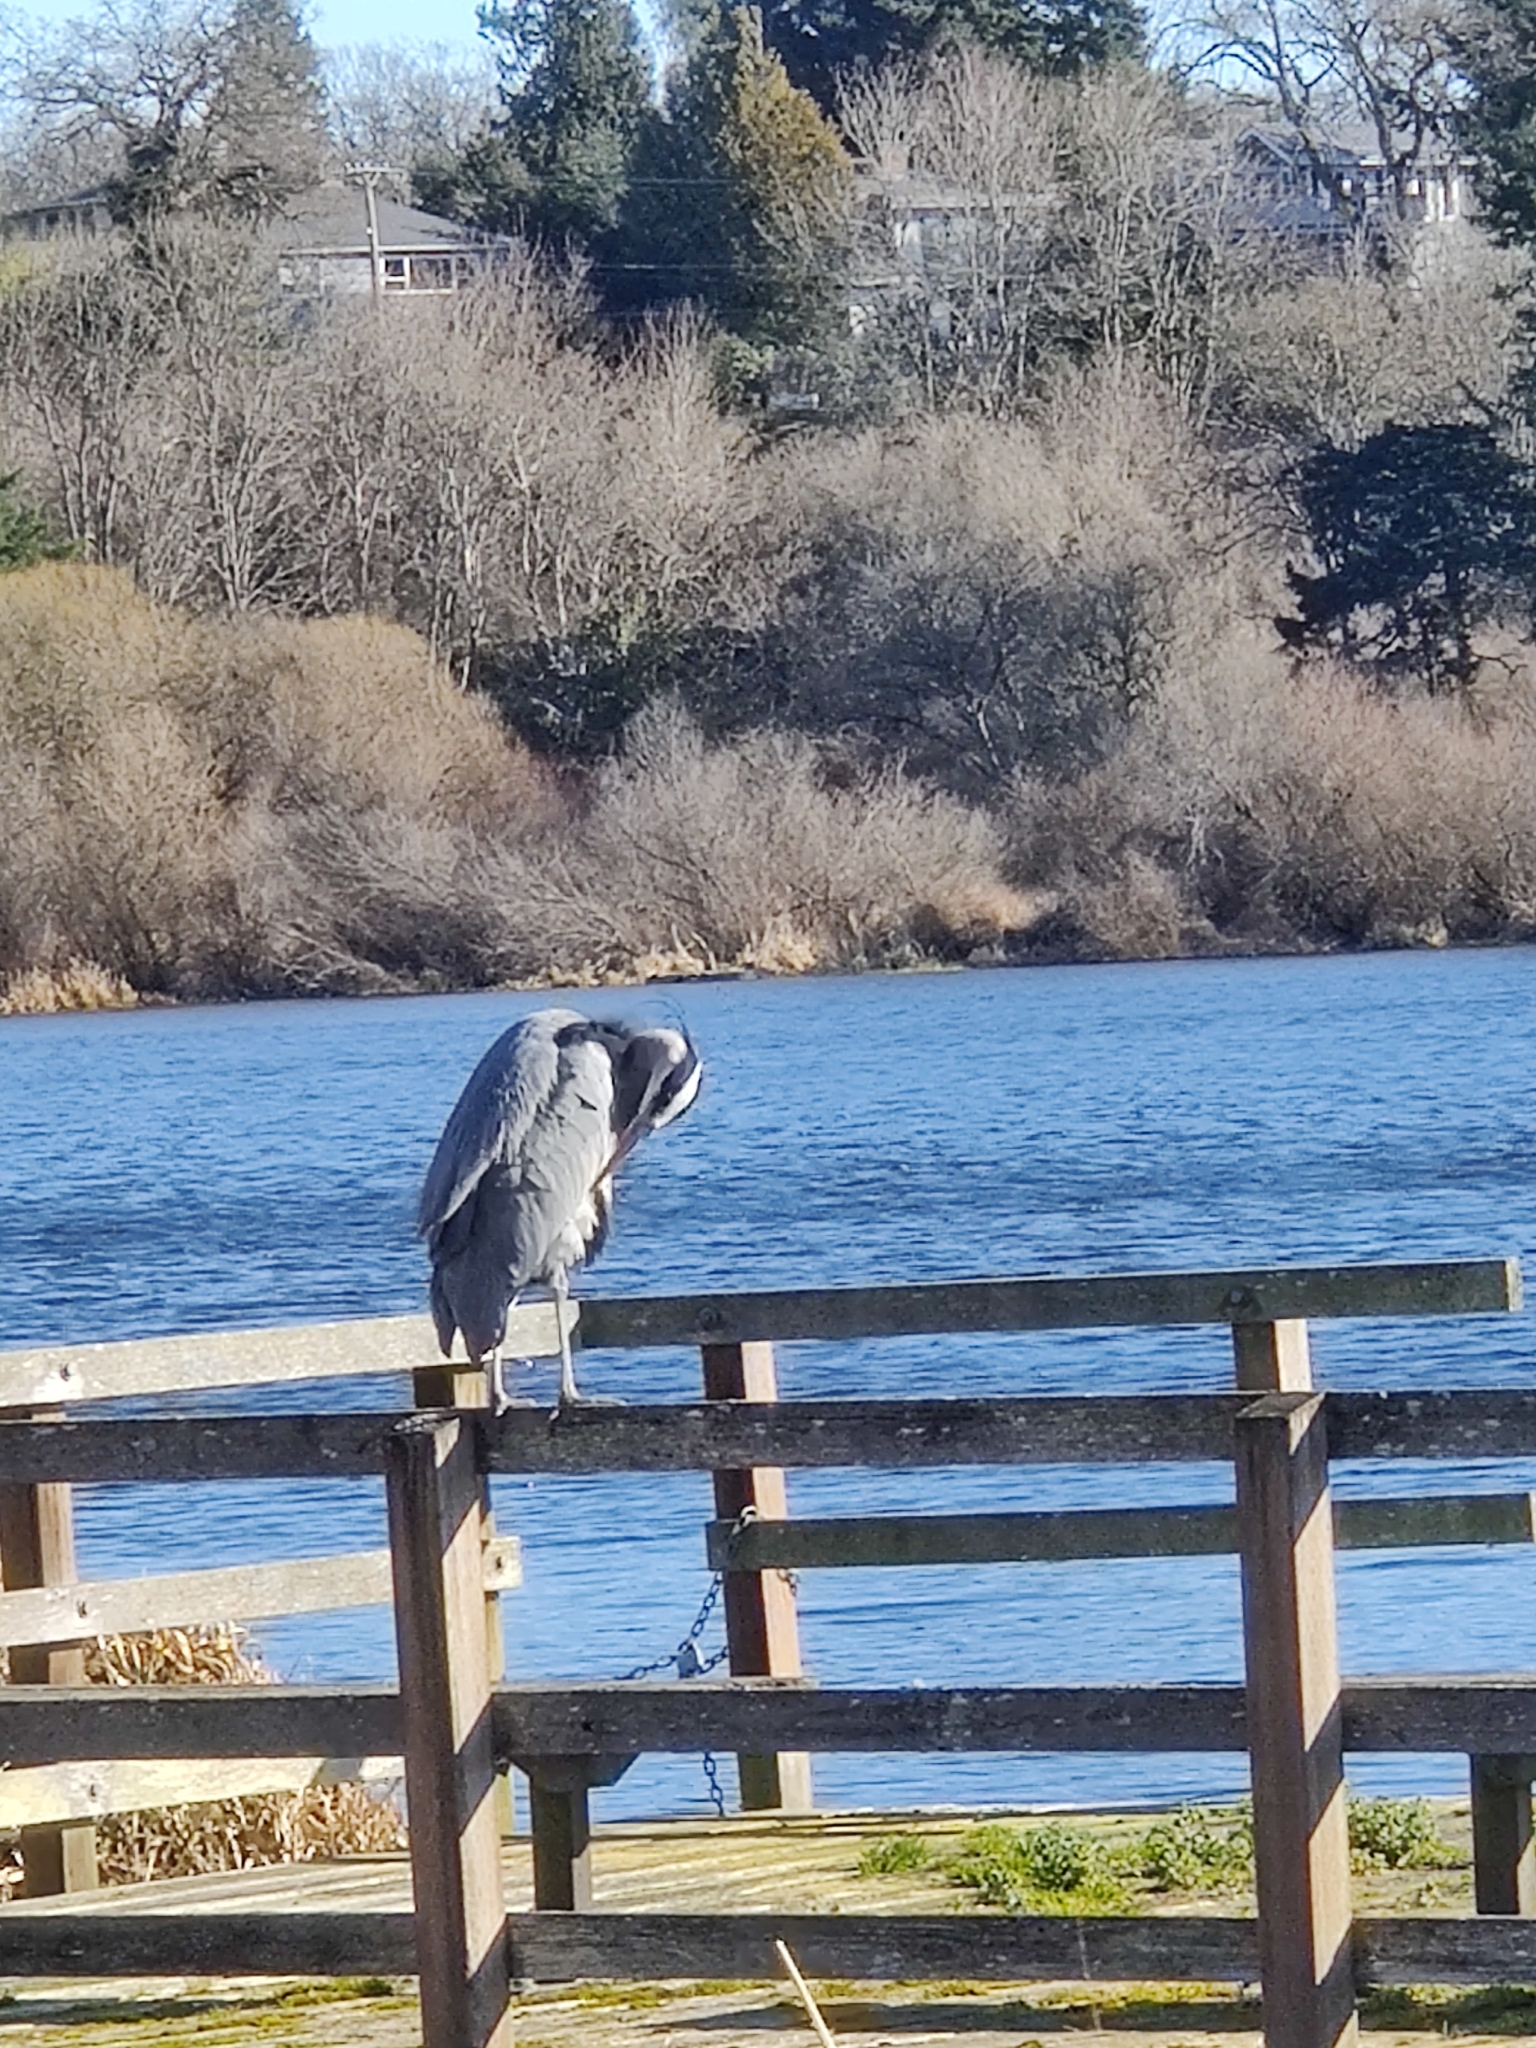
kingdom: Animalia
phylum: Chordata
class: Aves
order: Pelecaniformes
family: Ardeidae
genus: Ardea
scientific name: Ardea herodias
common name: Great blue heron
